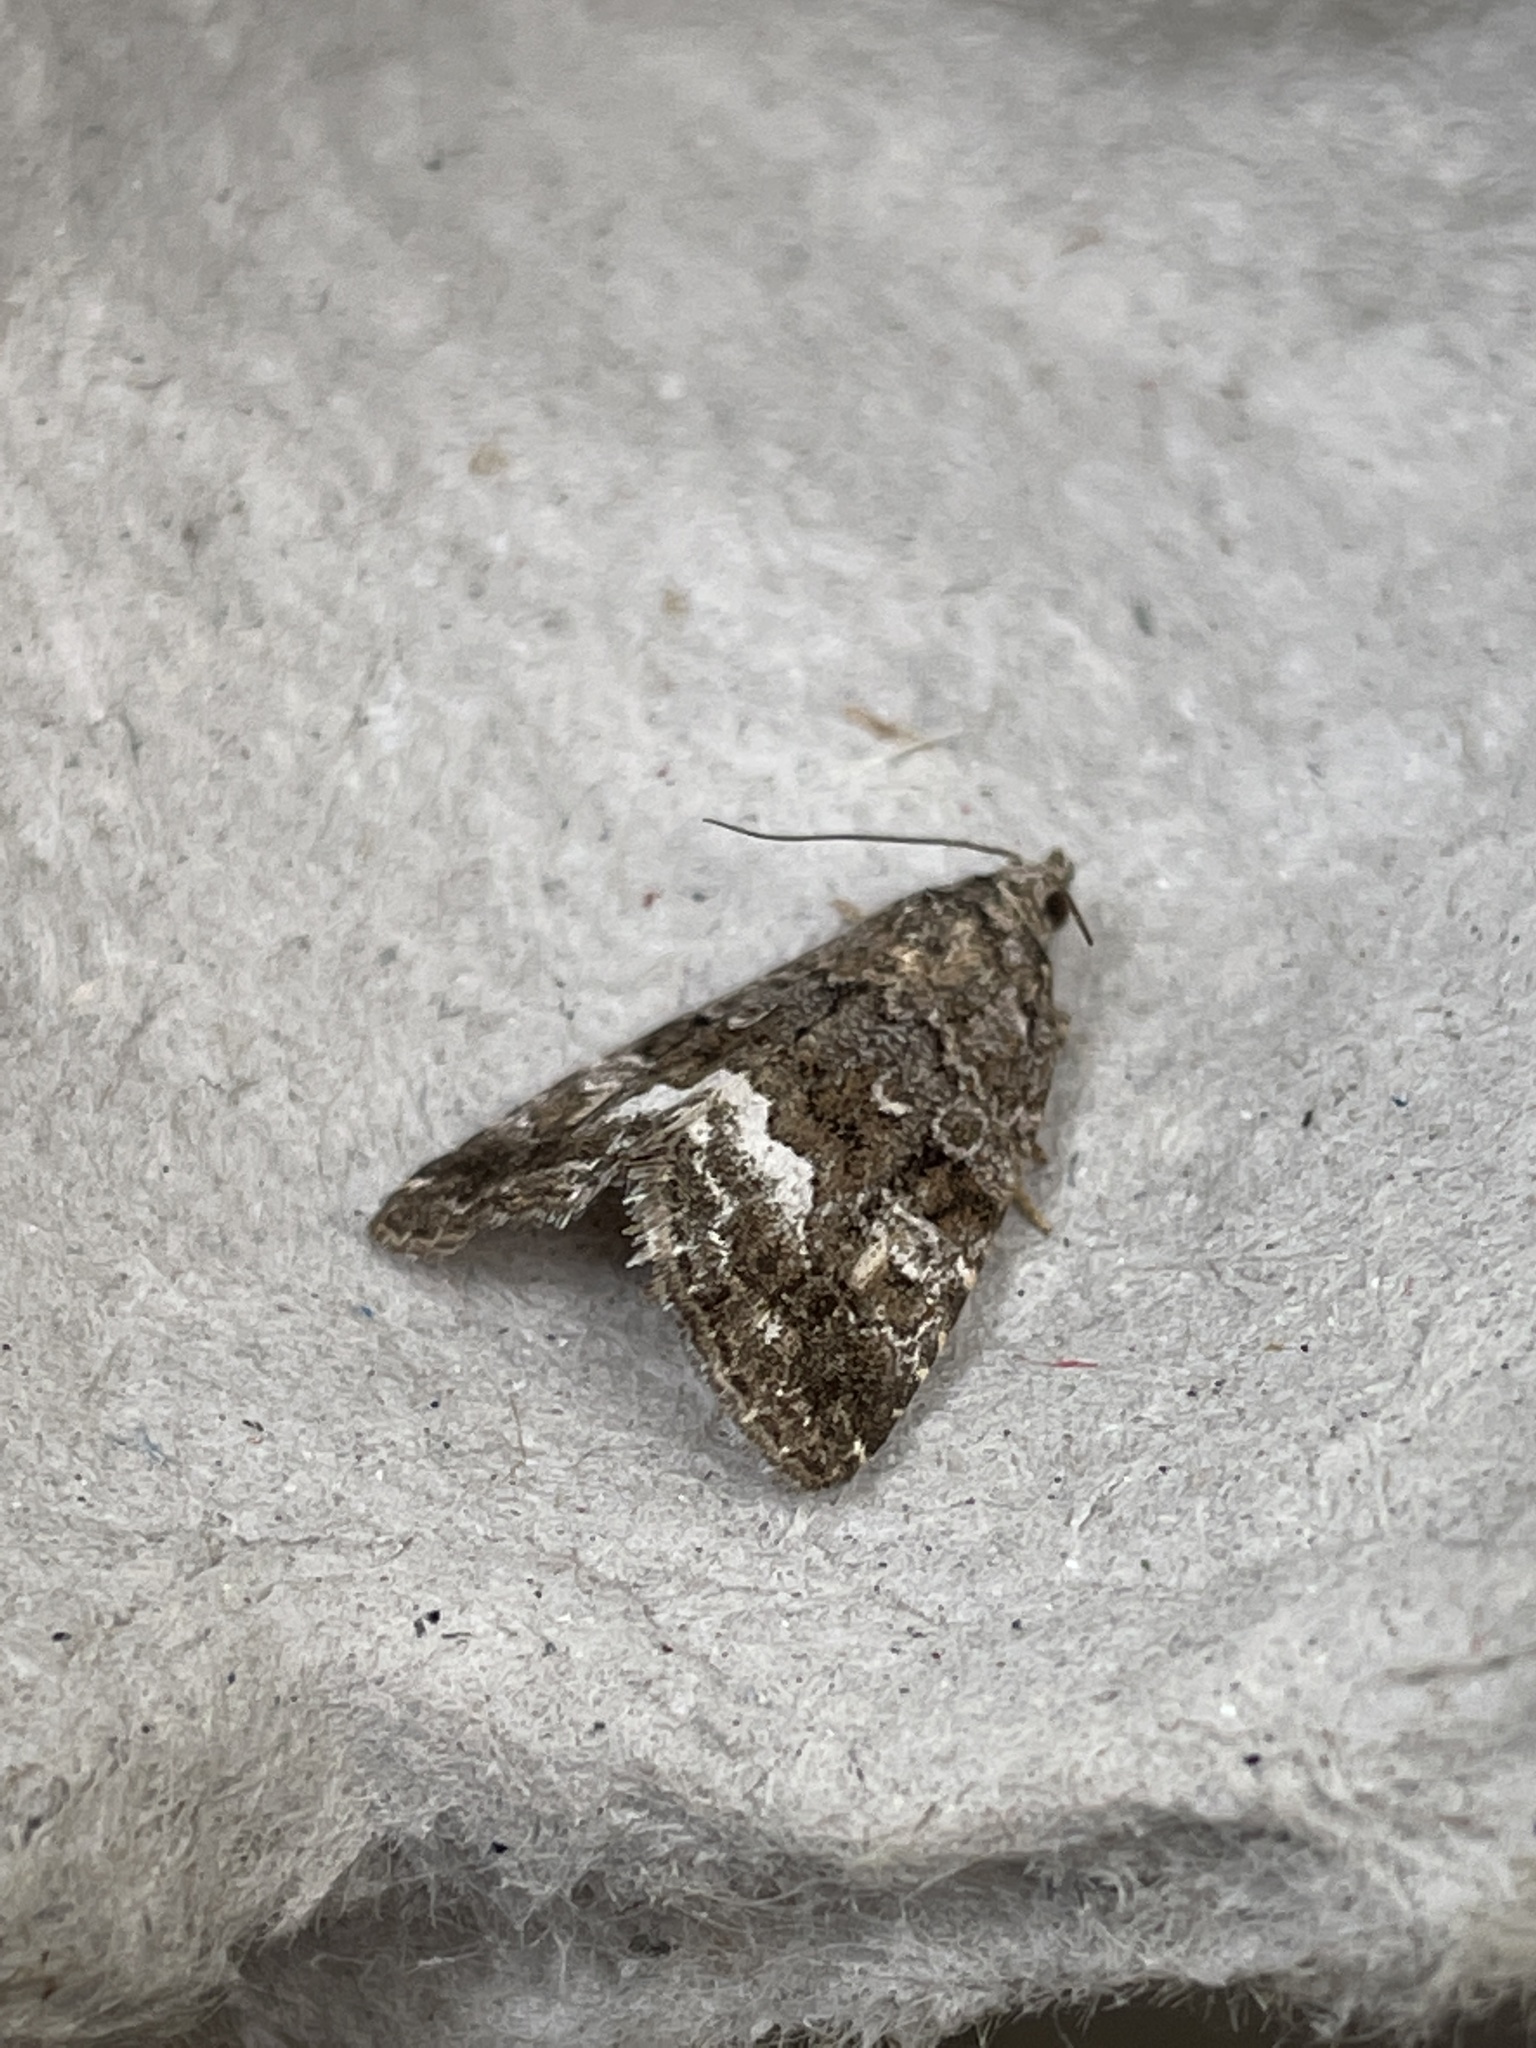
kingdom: Animalia
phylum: Arthropoda
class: Insecta
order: Lepidoptera
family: Noctuidae
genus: Deltote
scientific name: Deltote pygarga
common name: Marbled white spot
